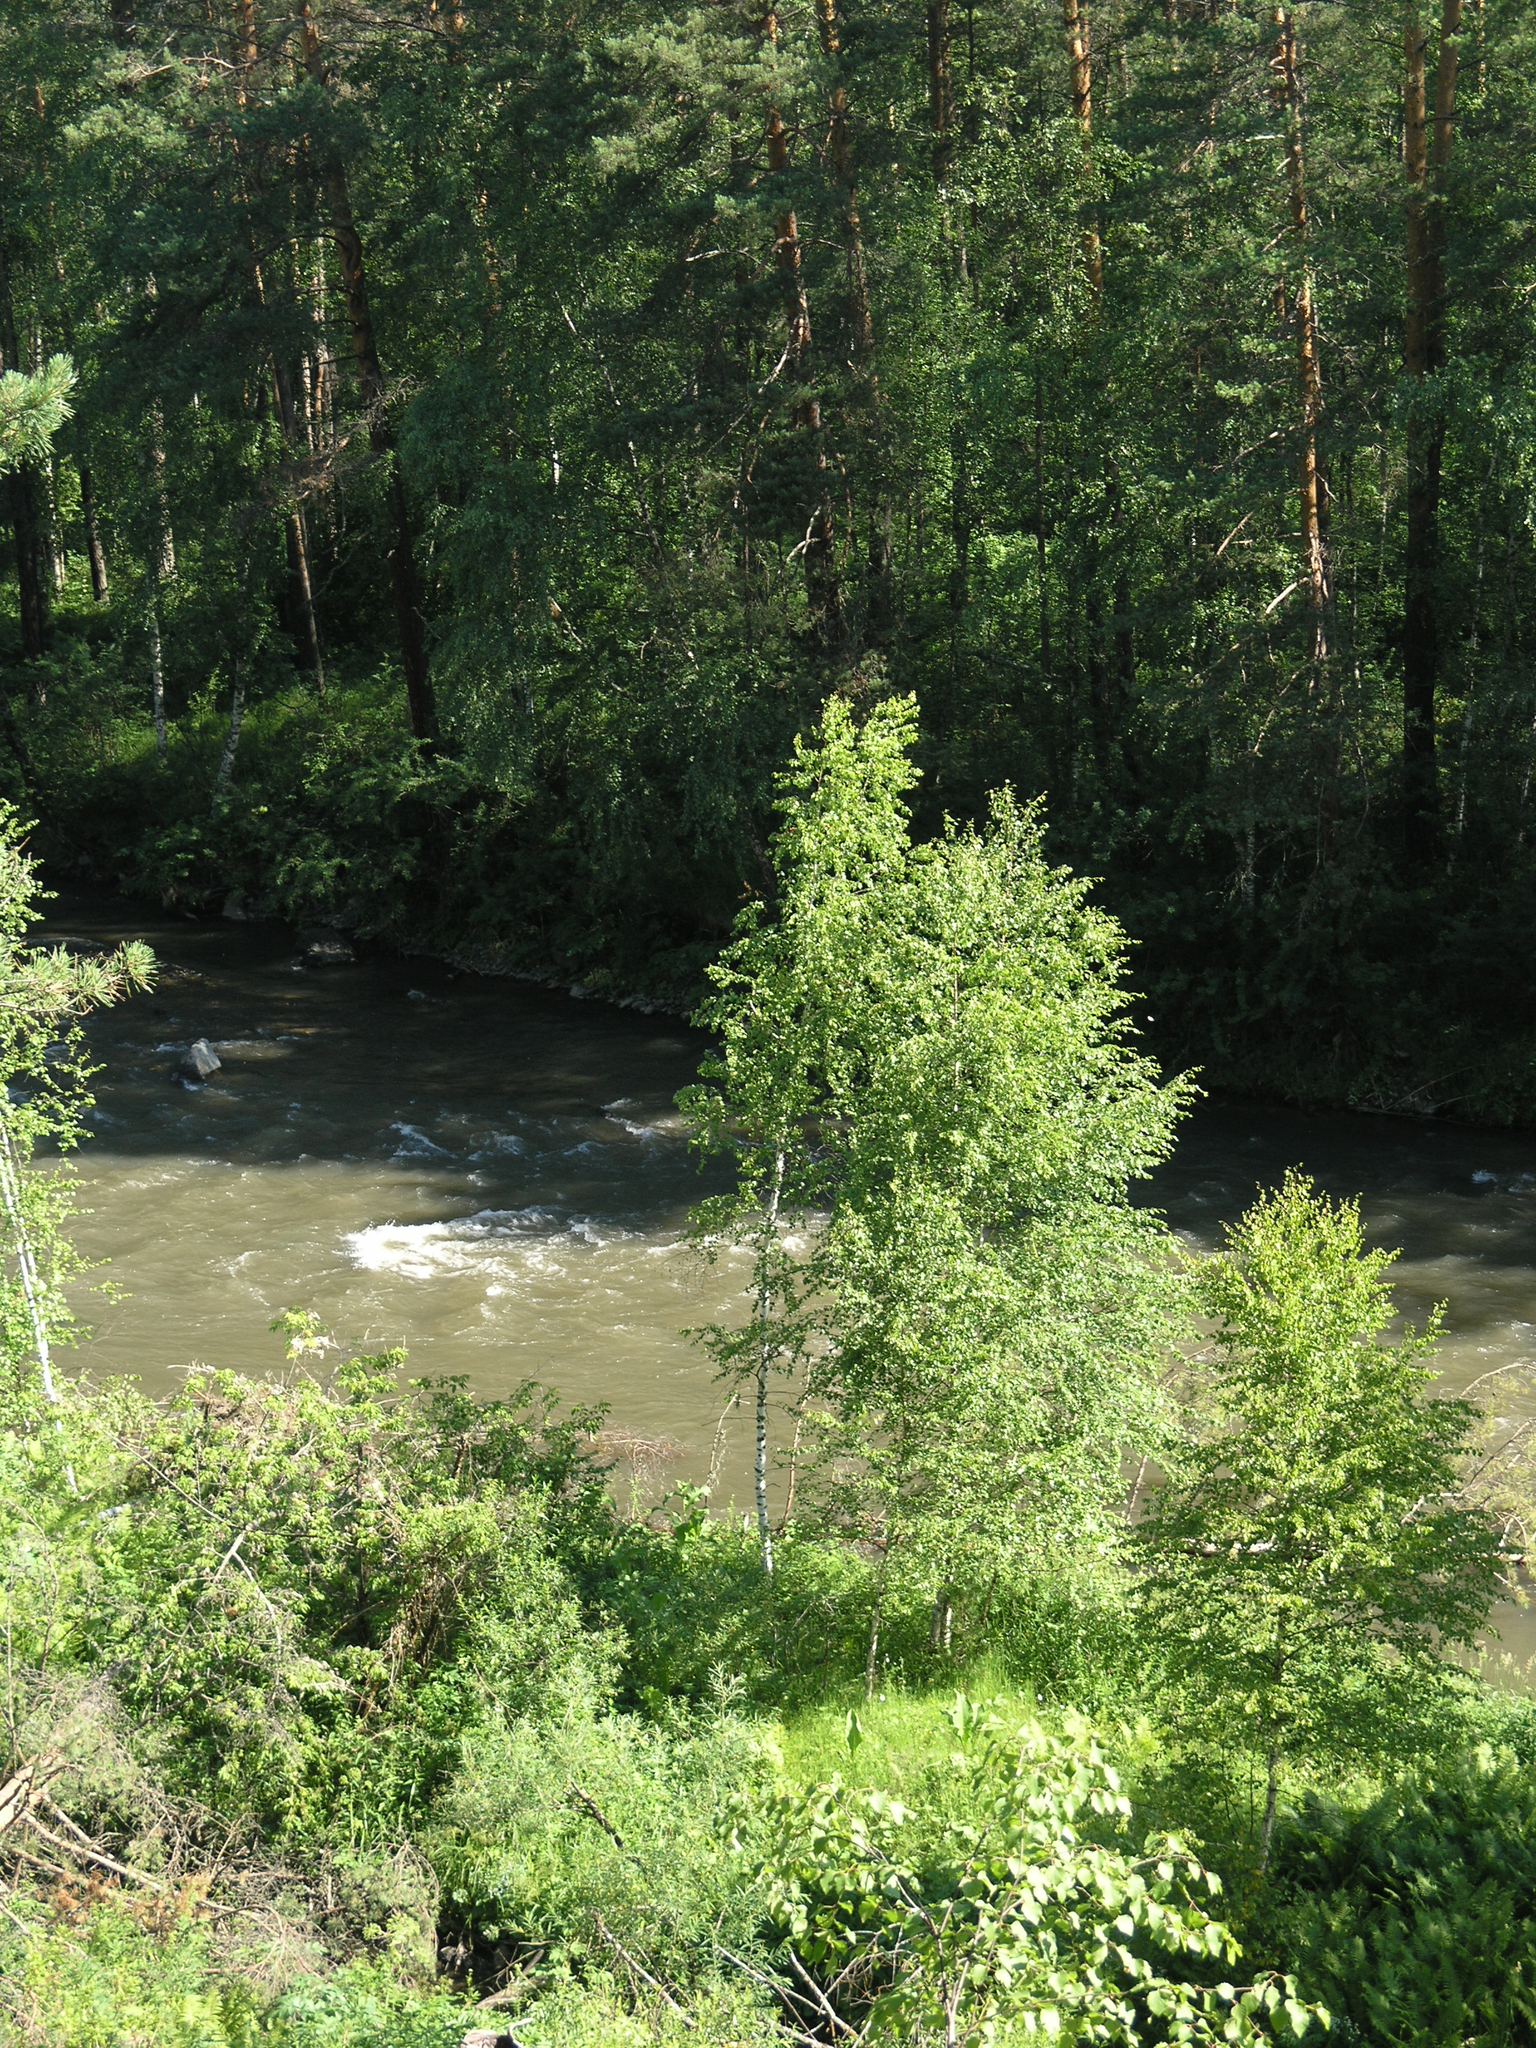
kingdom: Plantae
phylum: Tracheophyta
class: Magnoliopsida
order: Fagales
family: Betulaceae
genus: Betula
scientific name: Betula pendula
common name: Silver birch
